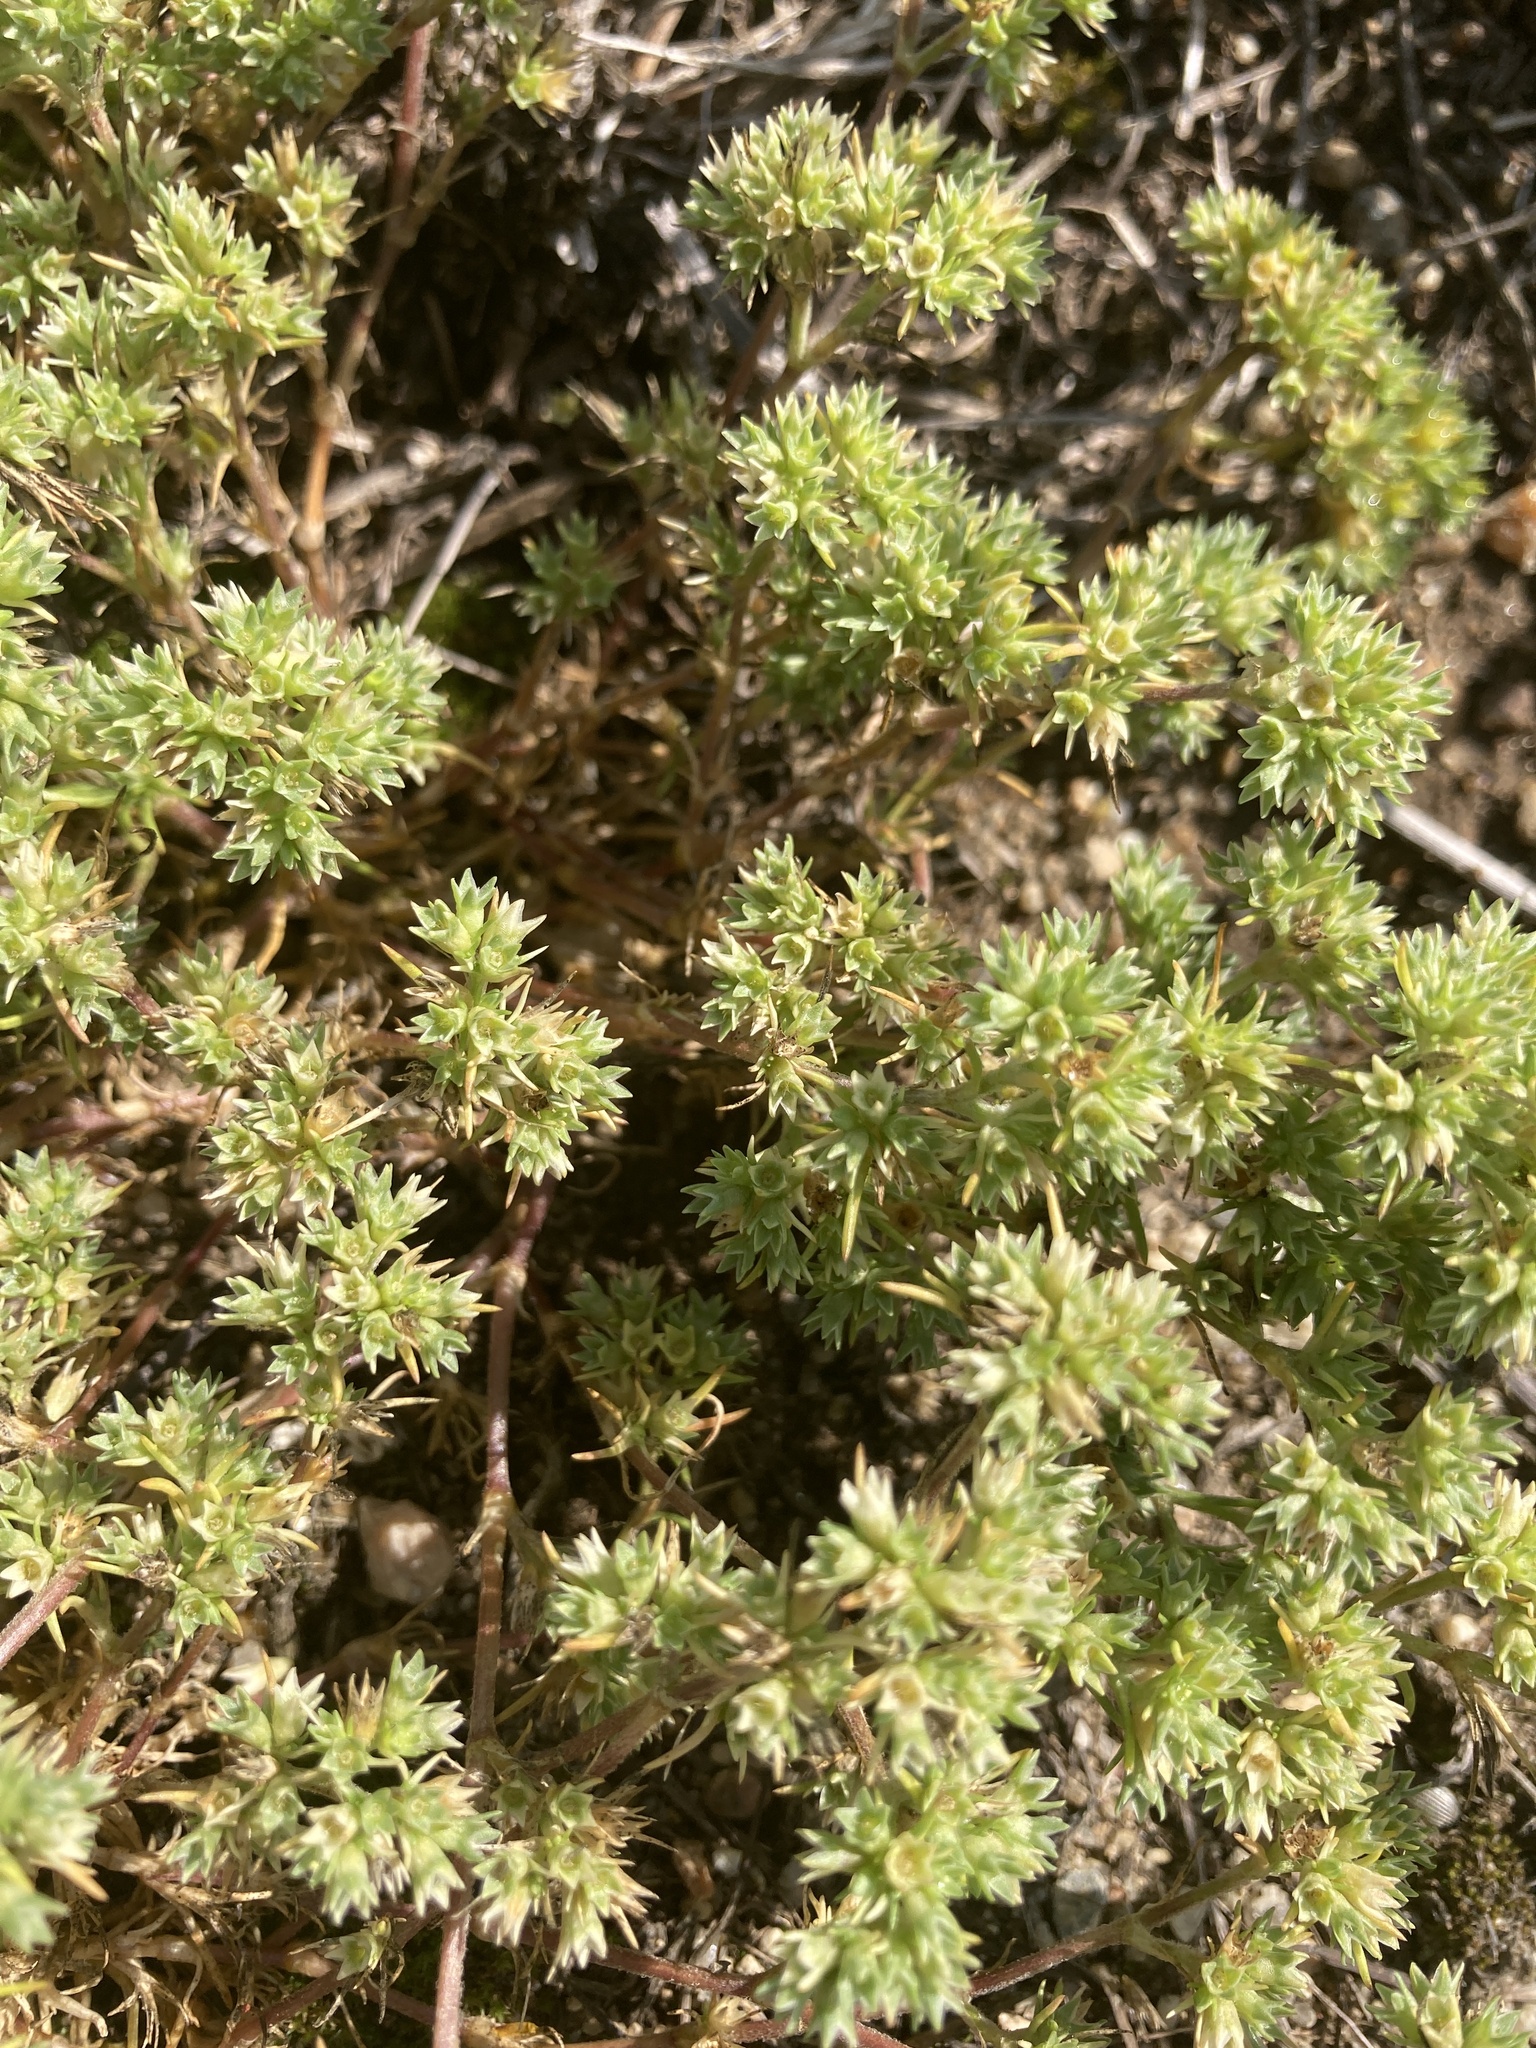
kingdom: Plantae
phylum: Tracheophyta
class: Magnoliopsida
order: Caryophyllales
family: Caryophyllaceae
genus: Scleranthus
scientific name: Scleranthus annuus
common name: Annual knawel
